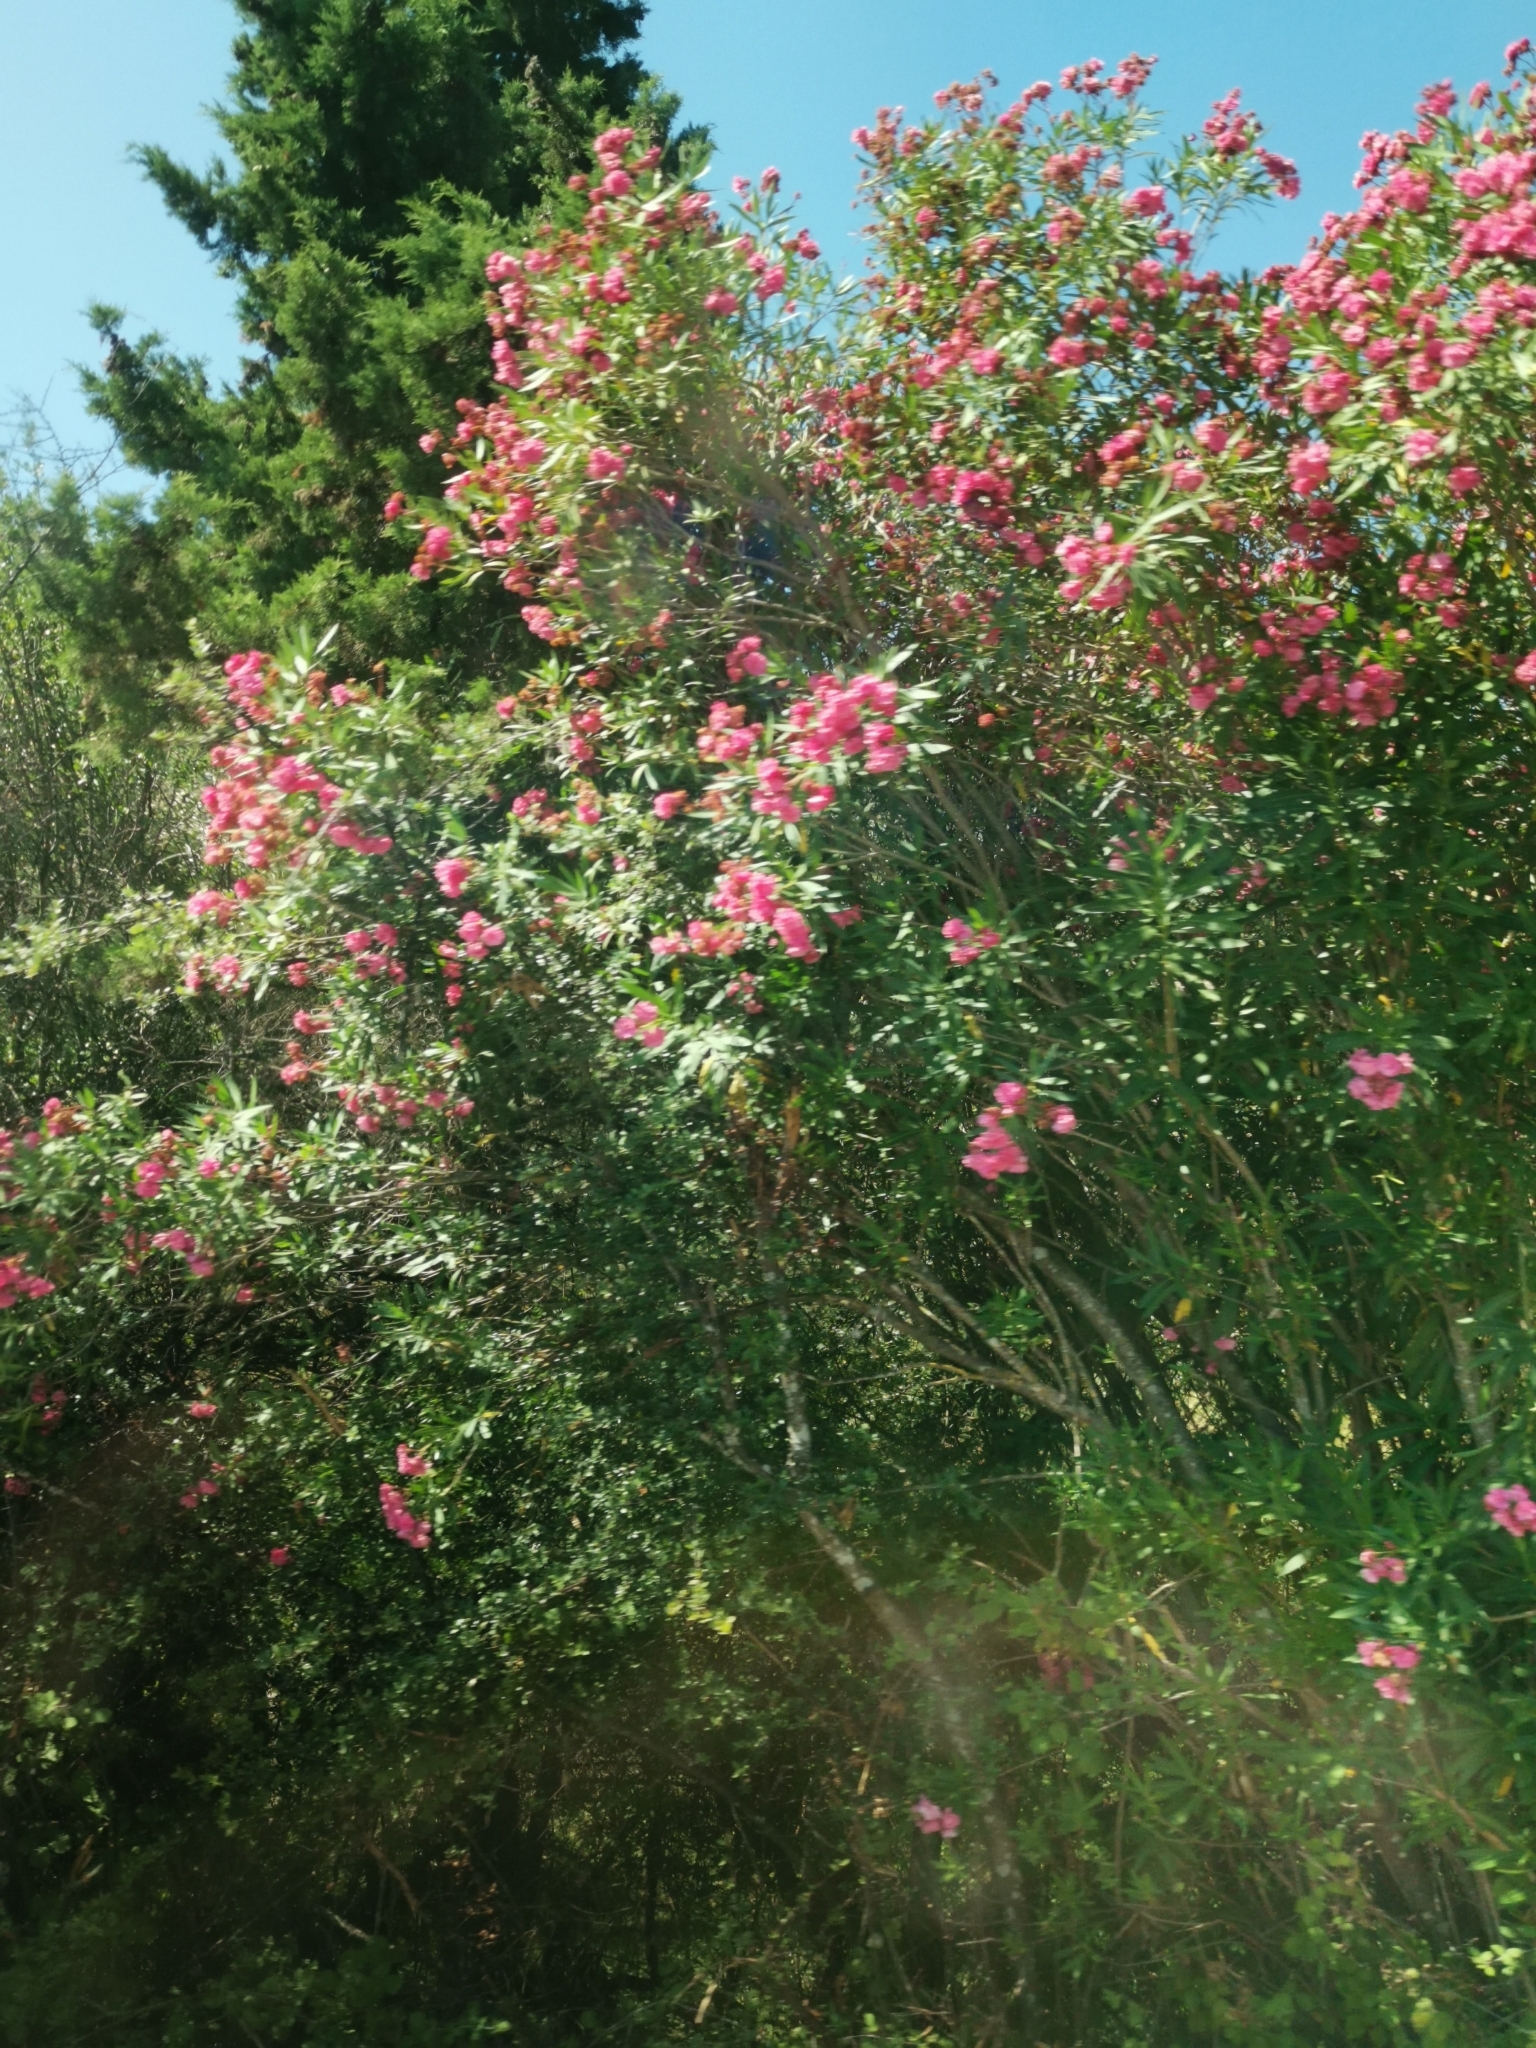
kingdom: Plantae
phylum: Tracheophyta
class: Magnoliopsida
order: Gentianales
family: Apocynaceae
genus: Nerium
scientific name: Nerium oleander
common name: Oleander
